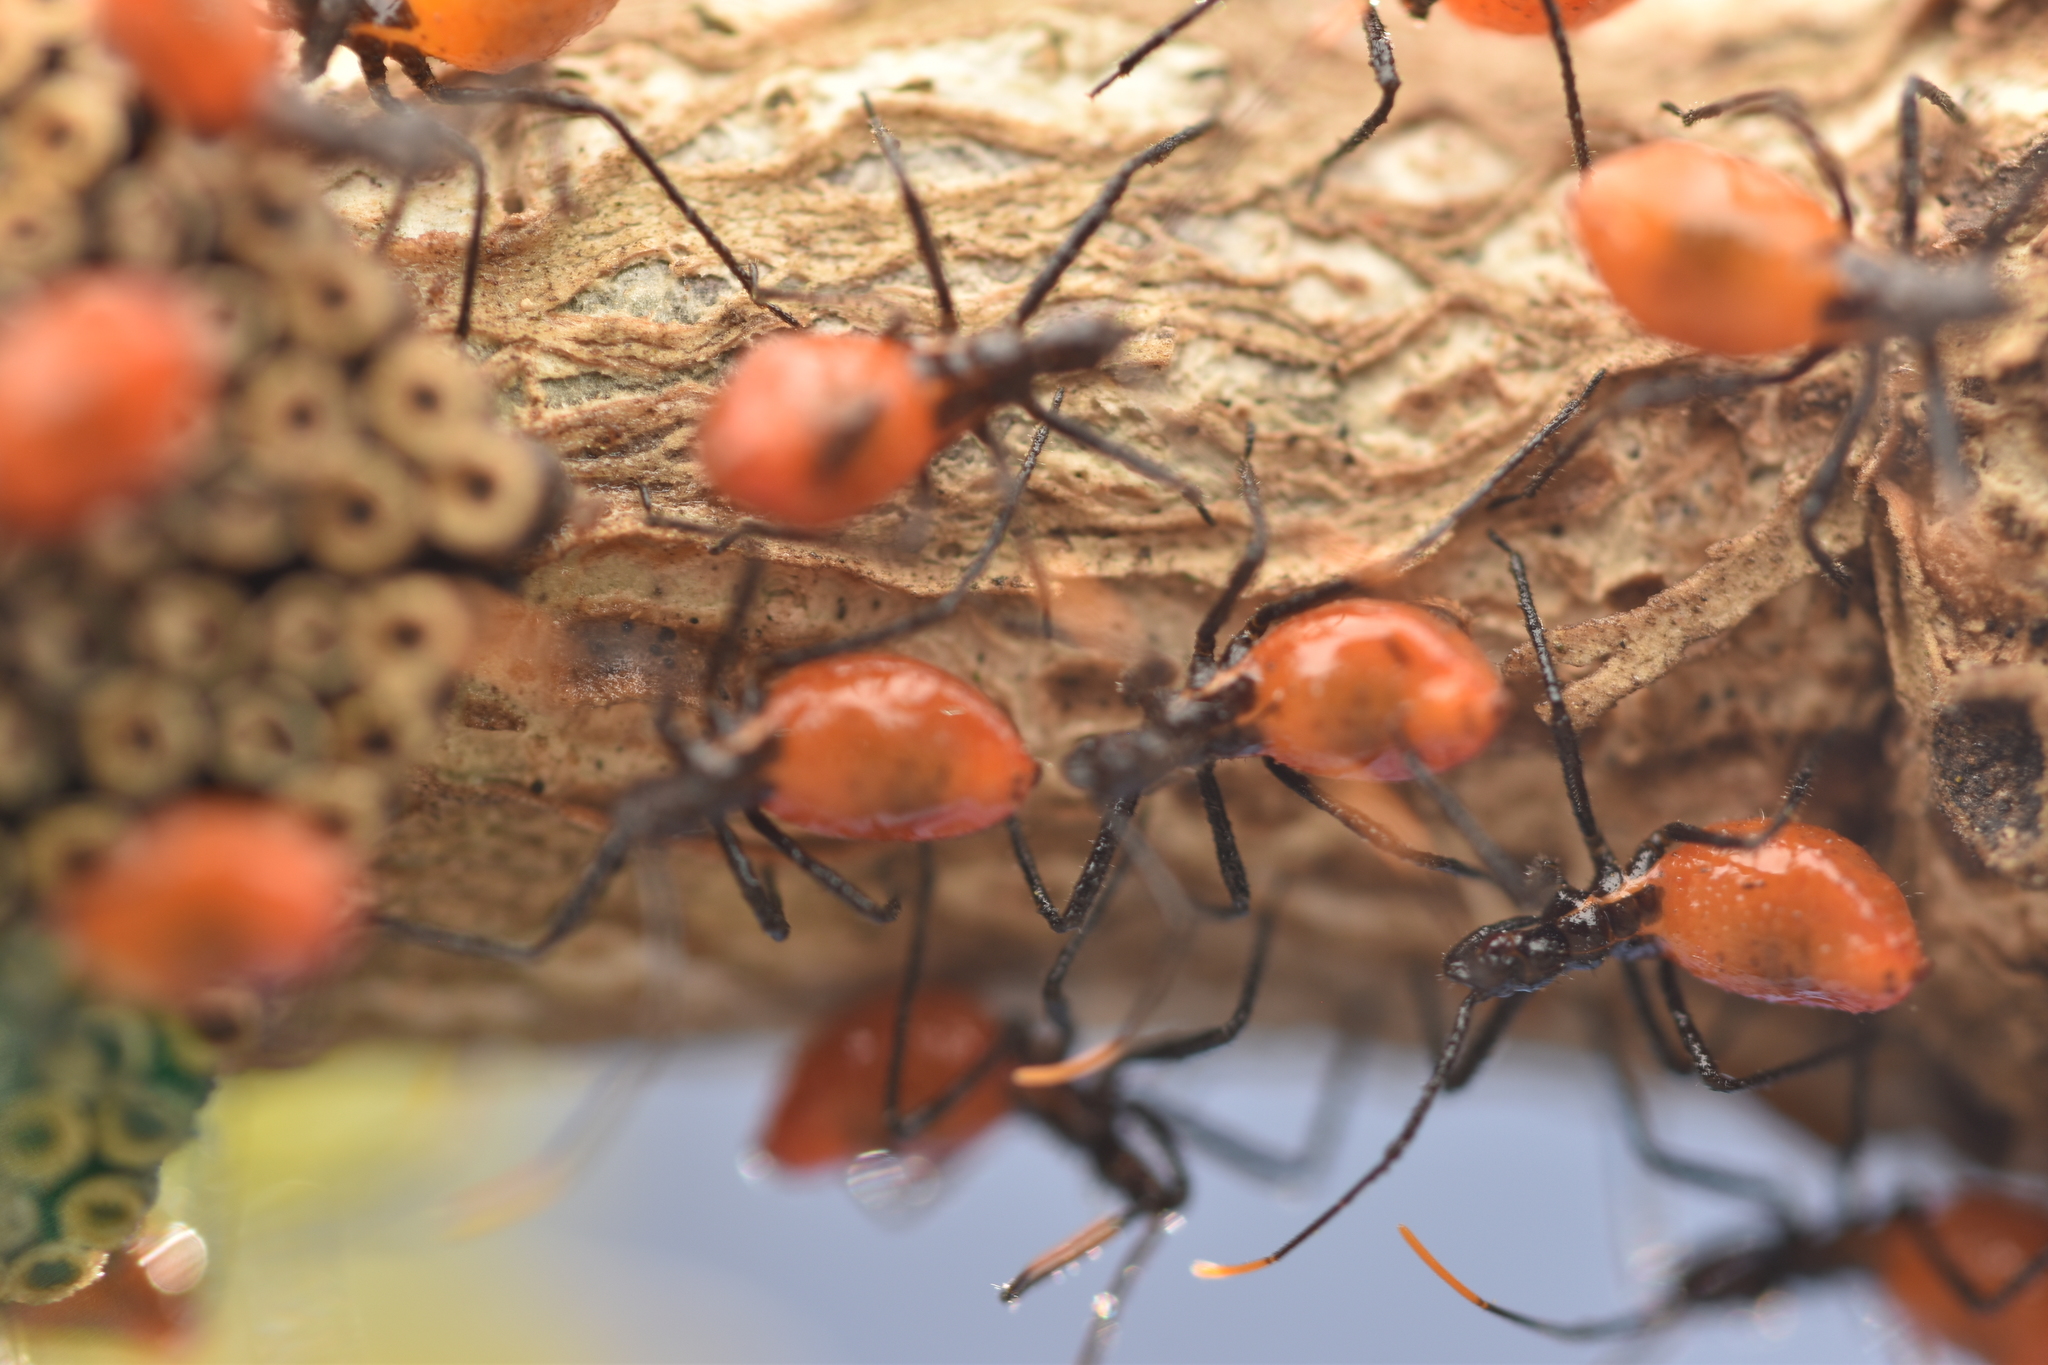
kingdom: Animalia
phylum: Arthropoda
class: Insecta
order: Hemiptera
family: Reduviidae
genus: Arilus
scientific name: Arilus cristatus
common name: North american wheel bug
